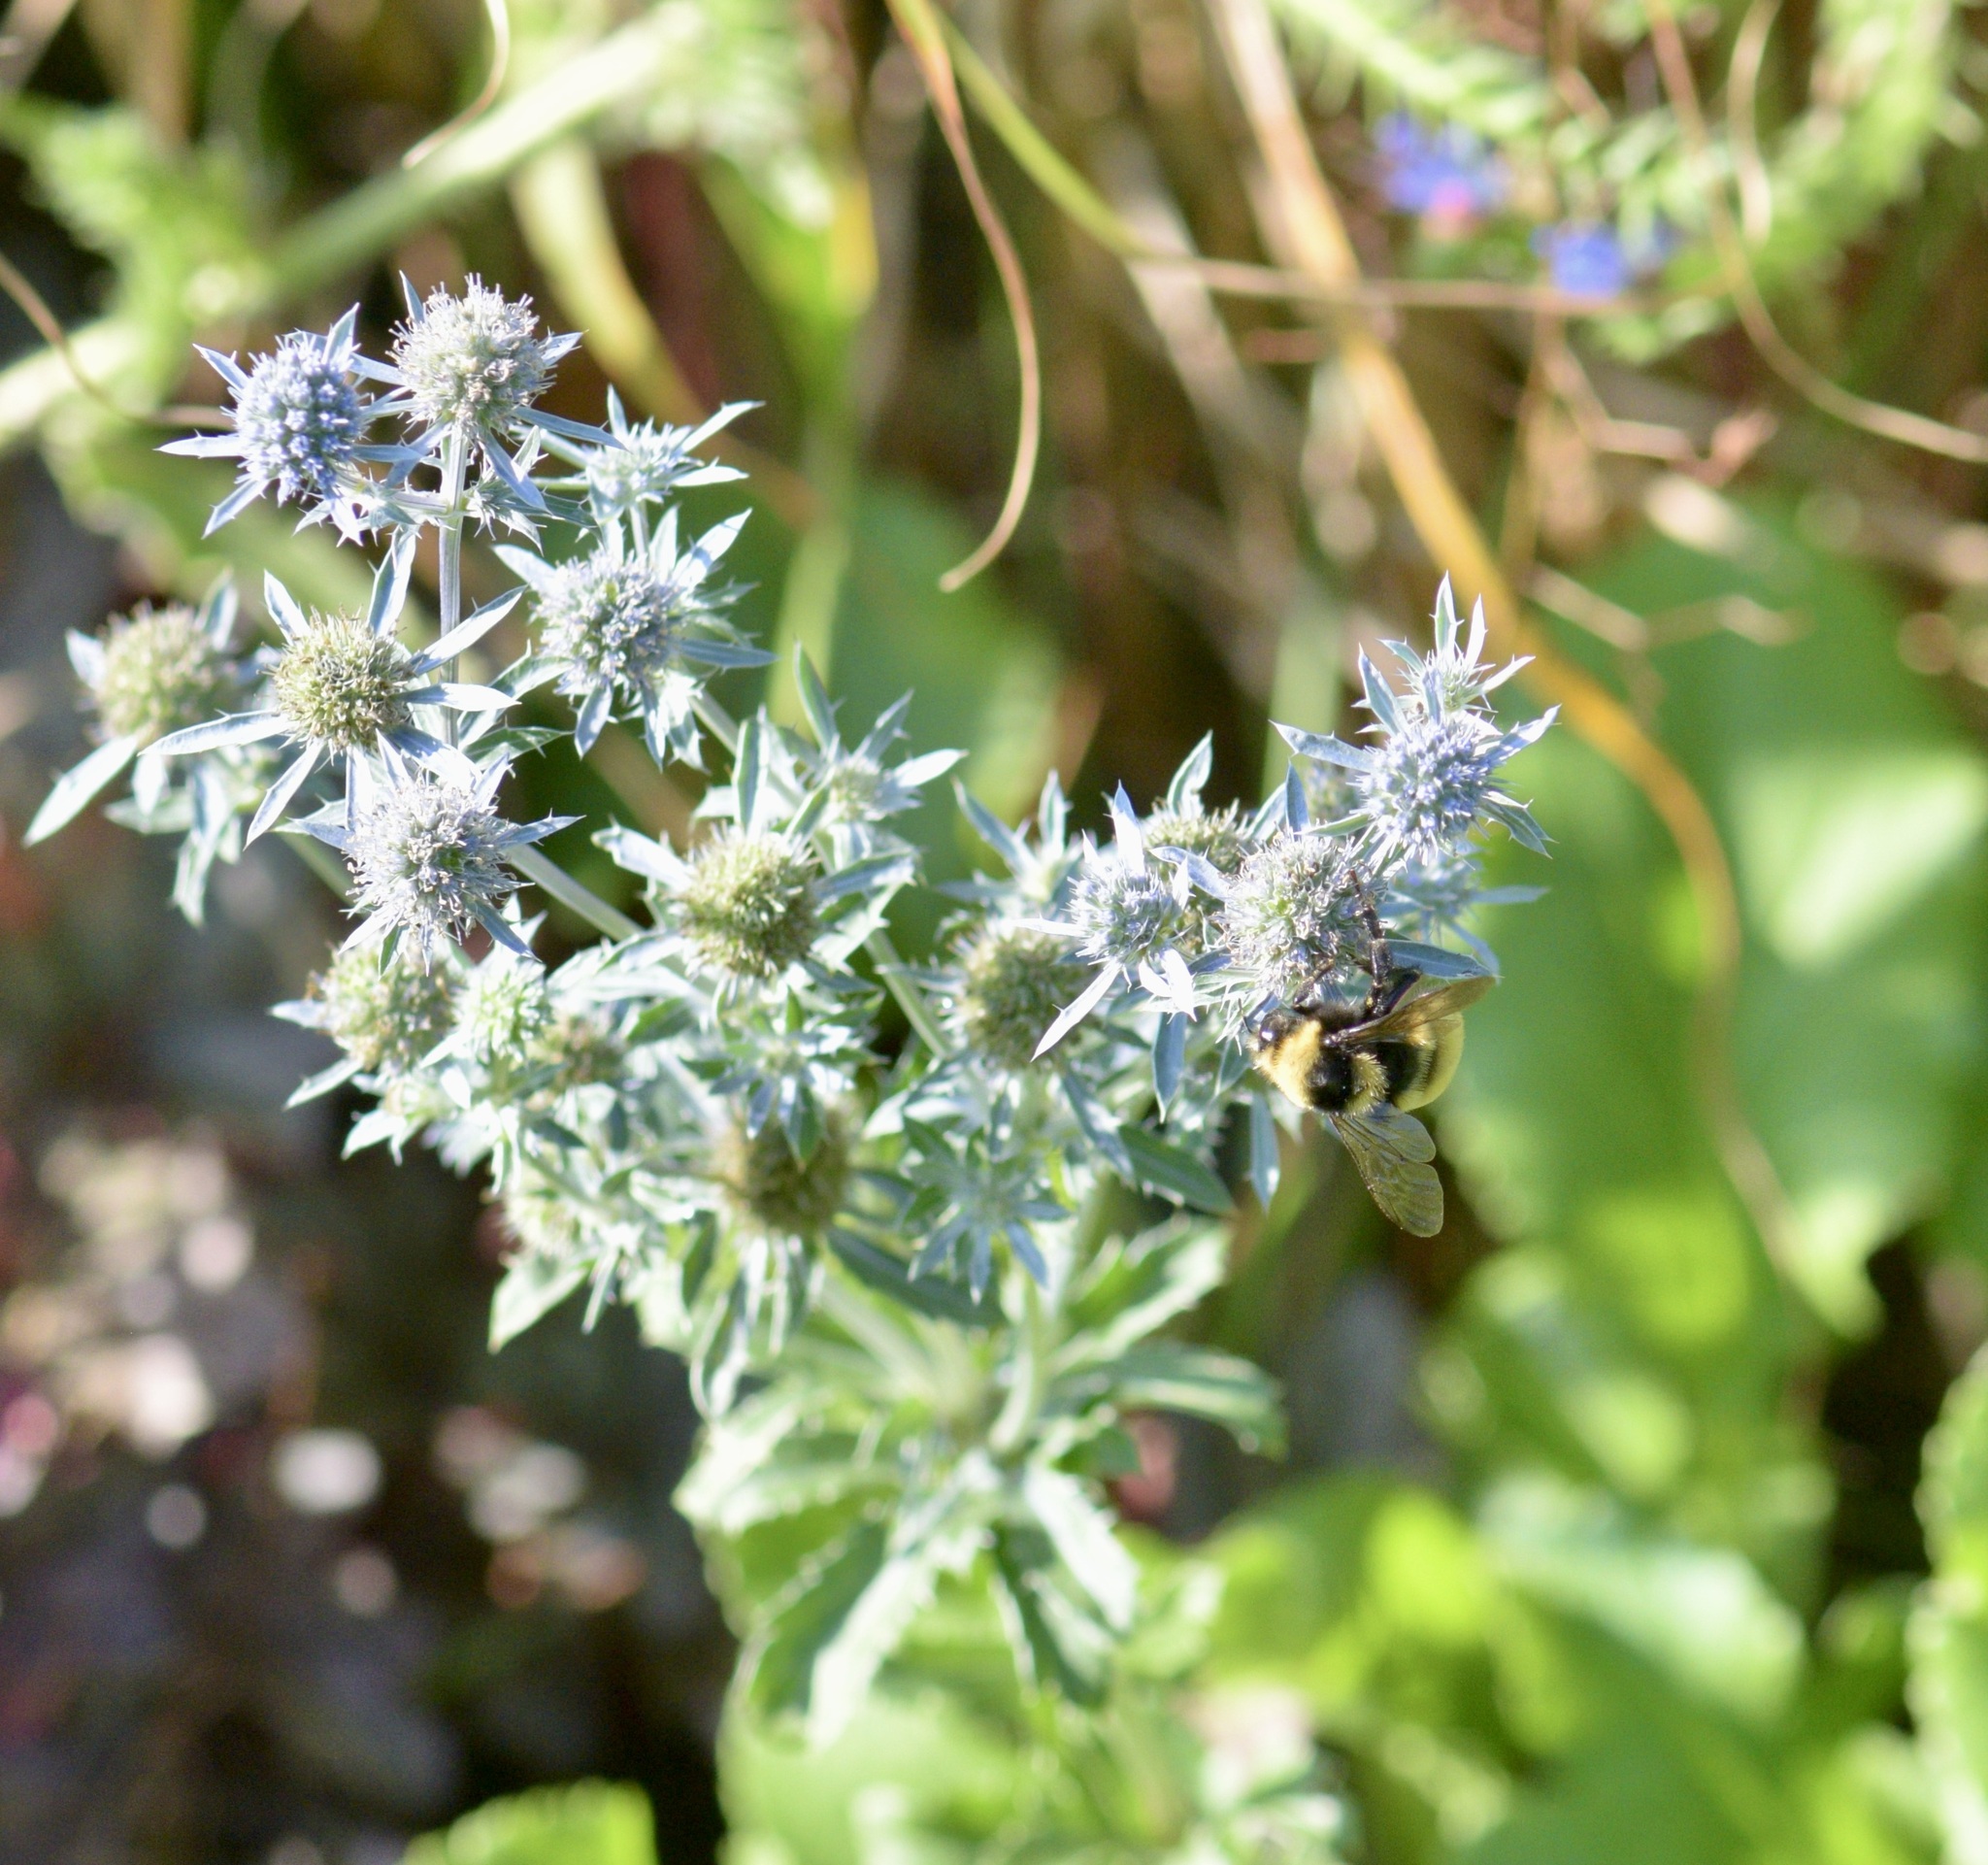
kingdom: Animalia
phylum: Arthropoda
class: Insecta
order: Hymenoptera
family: Apidae
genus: Bombus
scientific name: Bombus borealis
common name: Northern amber bumble bee
